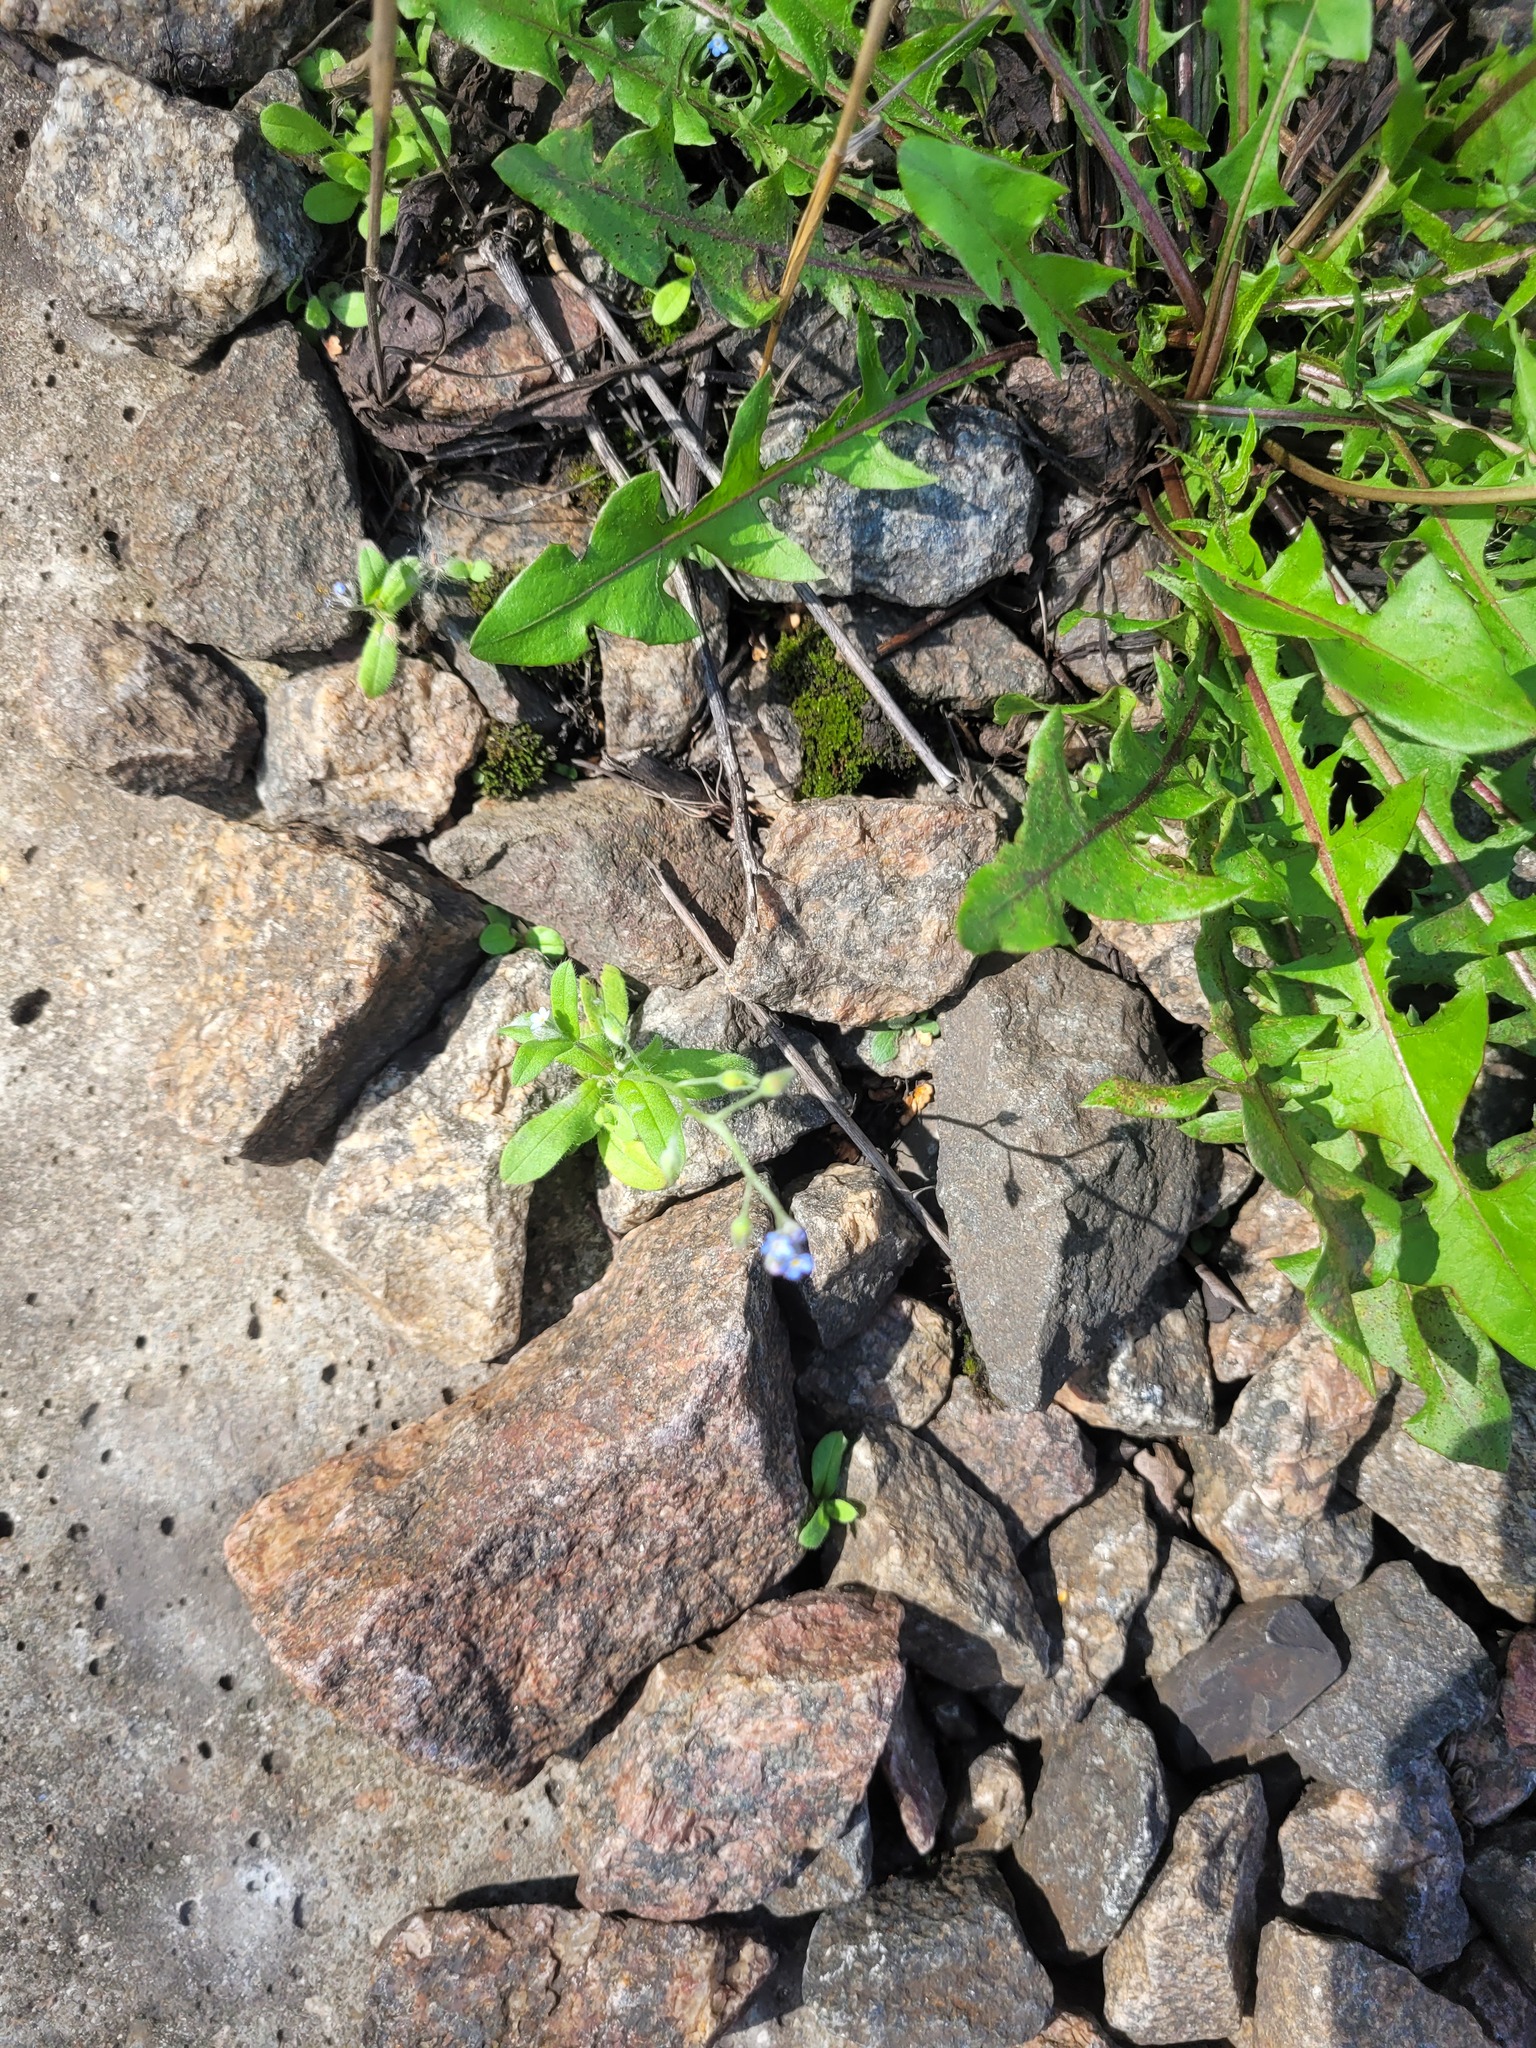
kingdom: Plantae
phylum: Tracheophyta
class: Magnoliopsida
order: Boraginales
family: Boraginaceae
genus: Myosotis
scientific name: Myosotis arvensis
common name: Field forget-me-not
